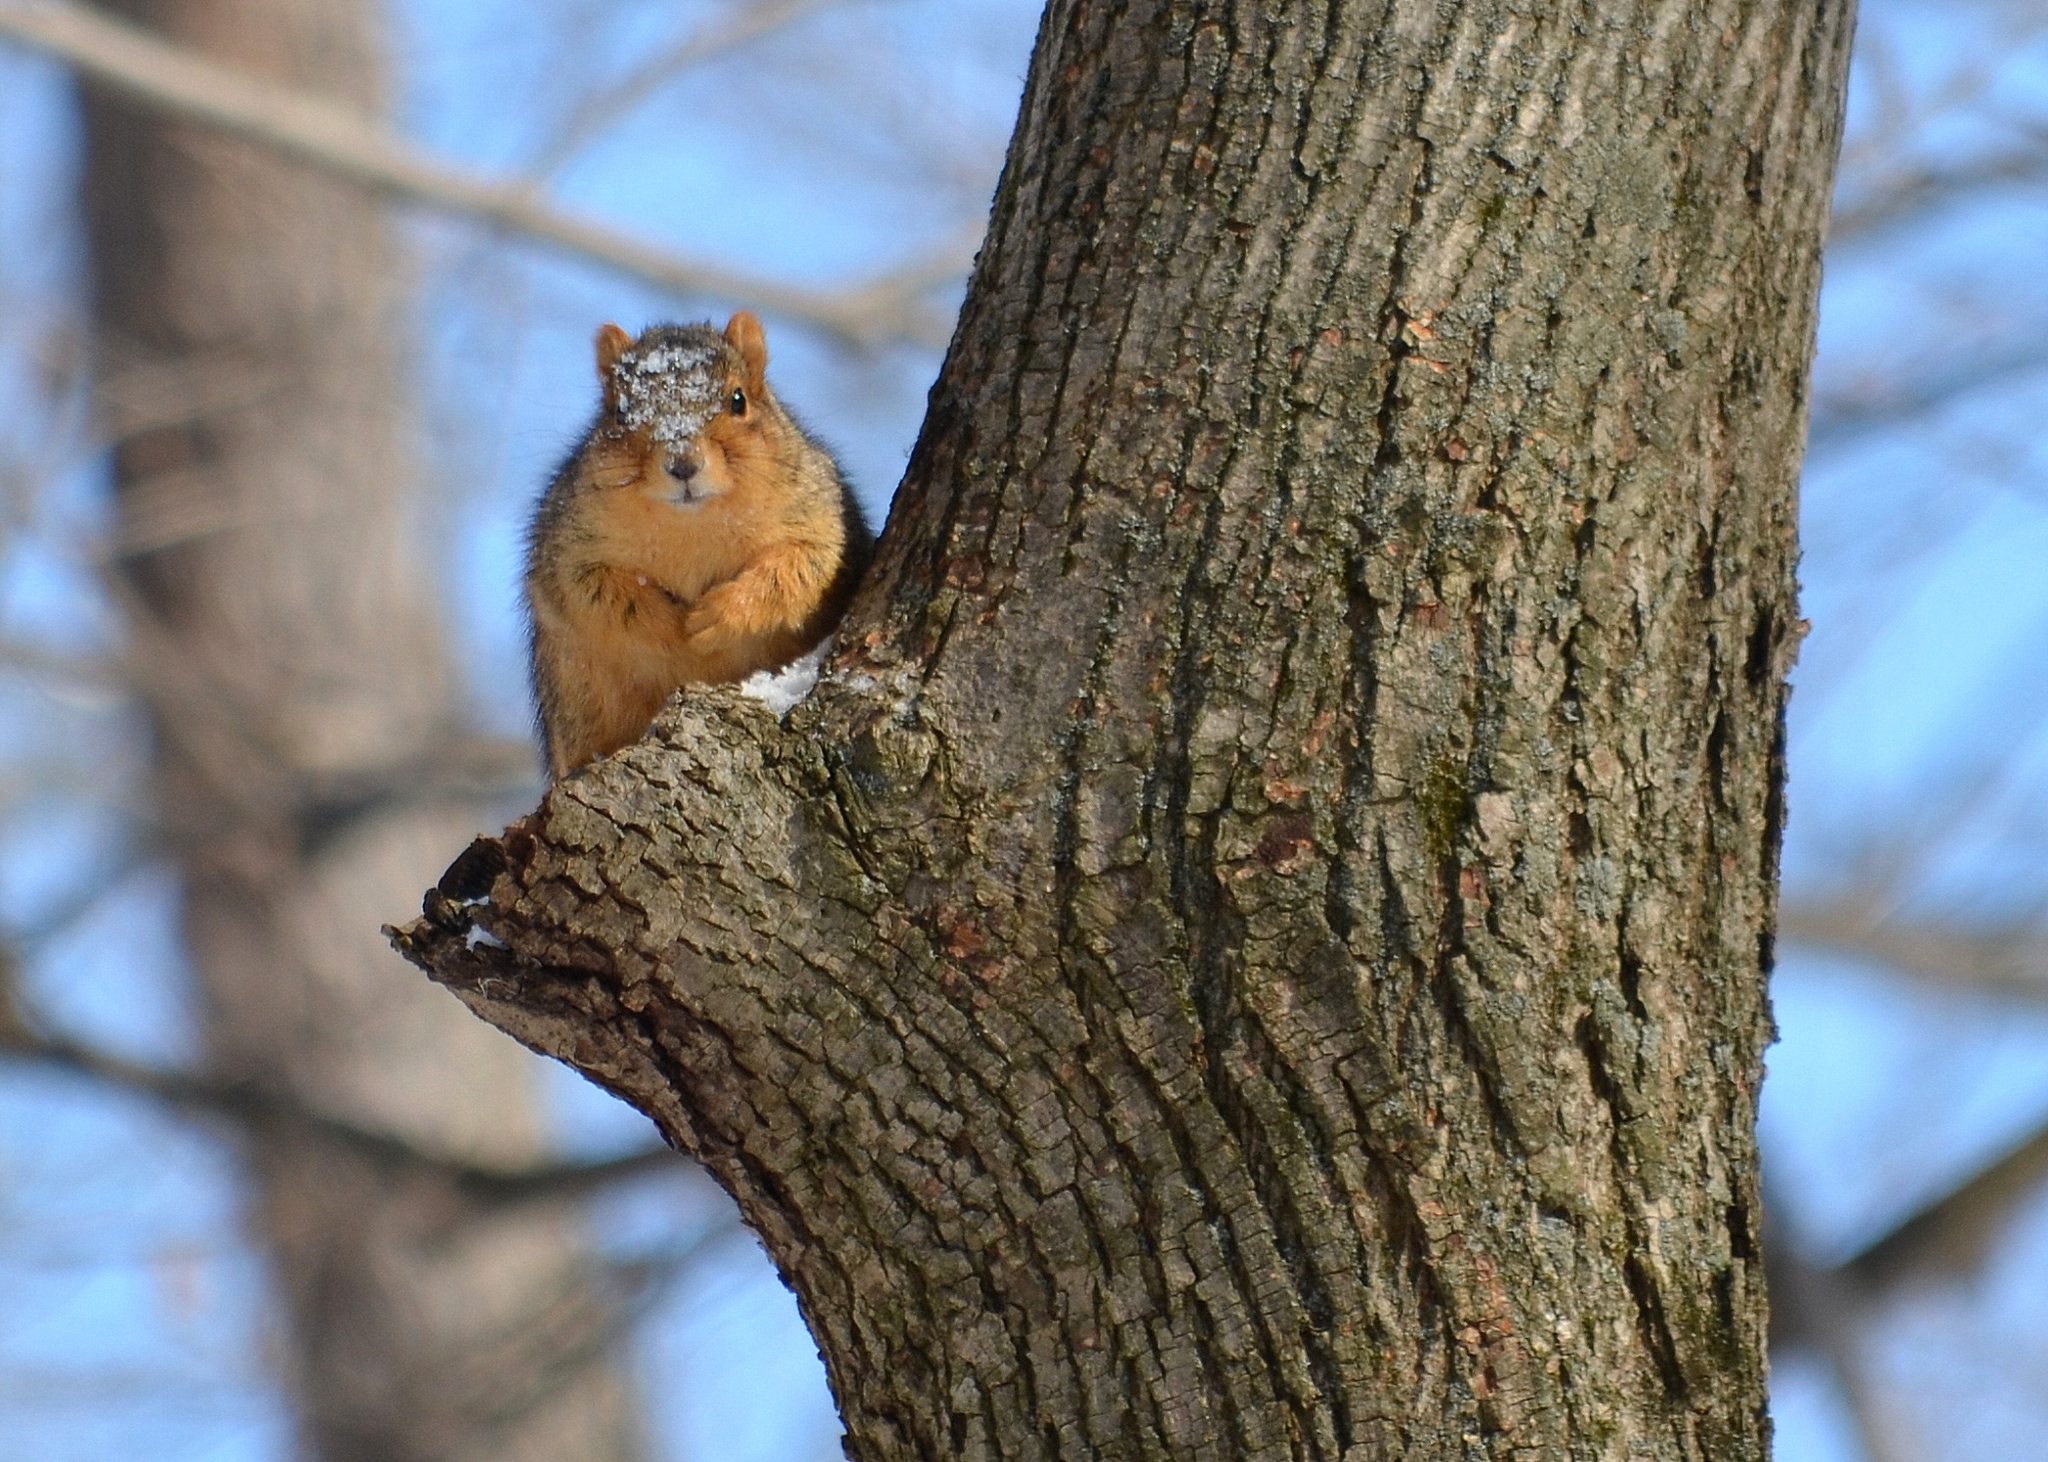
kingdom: Animalia
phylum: Chordata
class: Mammalia
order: Rodentia
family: Sciuridae
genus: Sciurus
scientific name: Sciurus niger
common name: Fox squirrel
